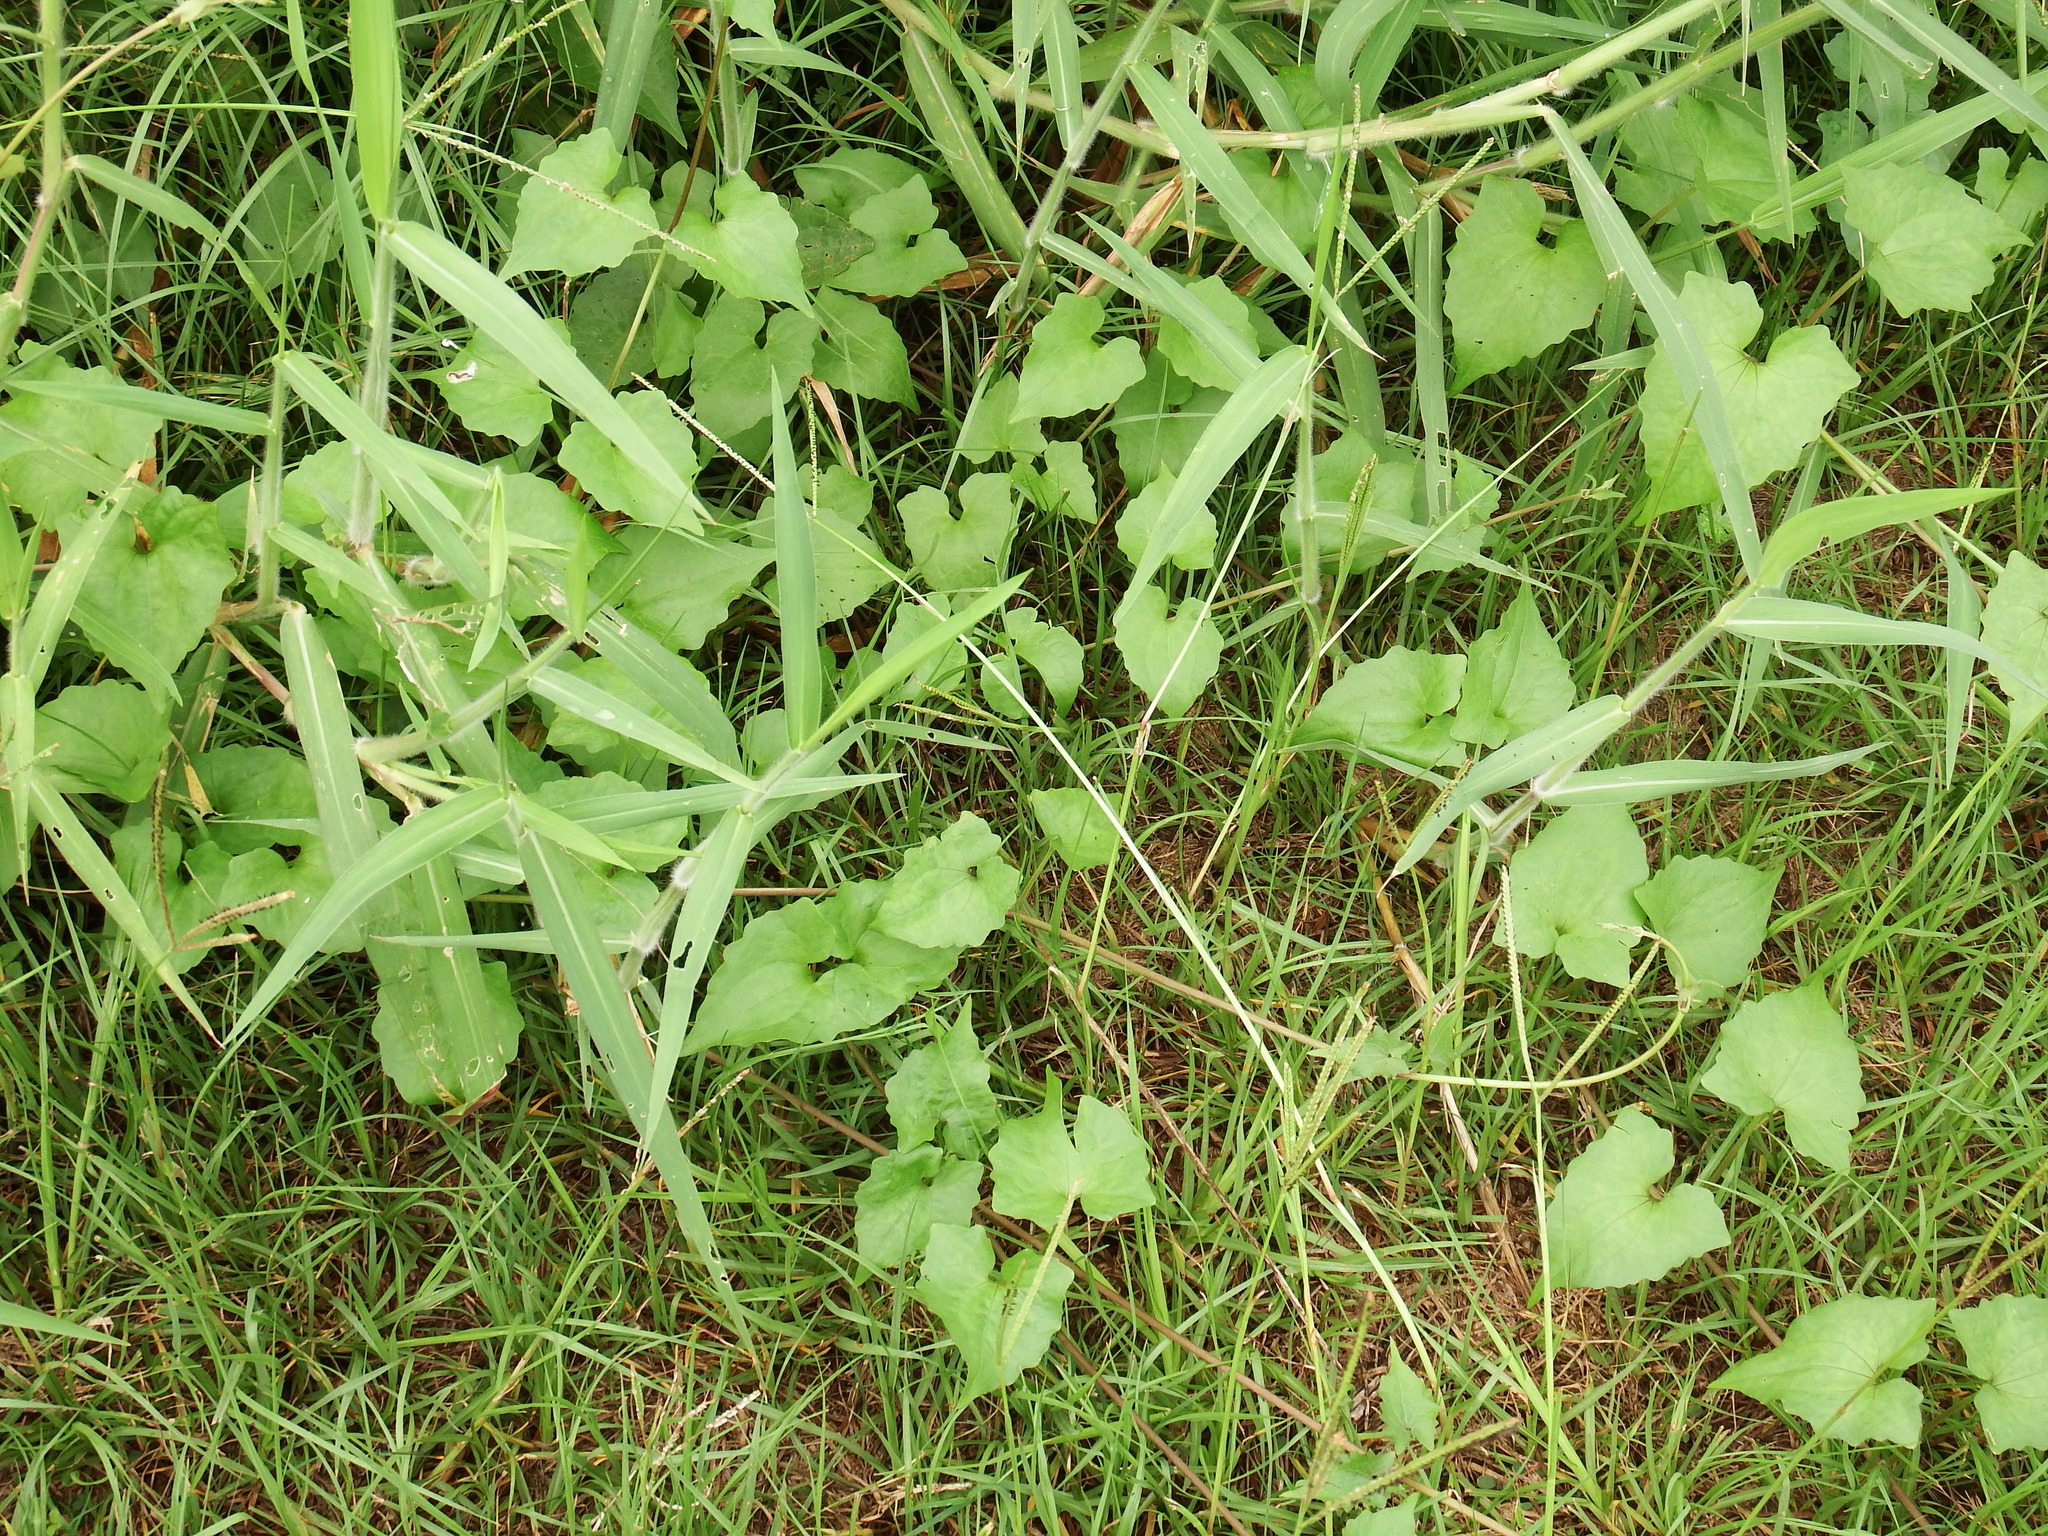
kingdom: Plantae
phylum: Tracheophyta
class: Magnoliopsida
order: Asterales
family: Asteraceae
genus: Mikania
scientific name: Mikania micrantha
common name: Mile-a-minute
